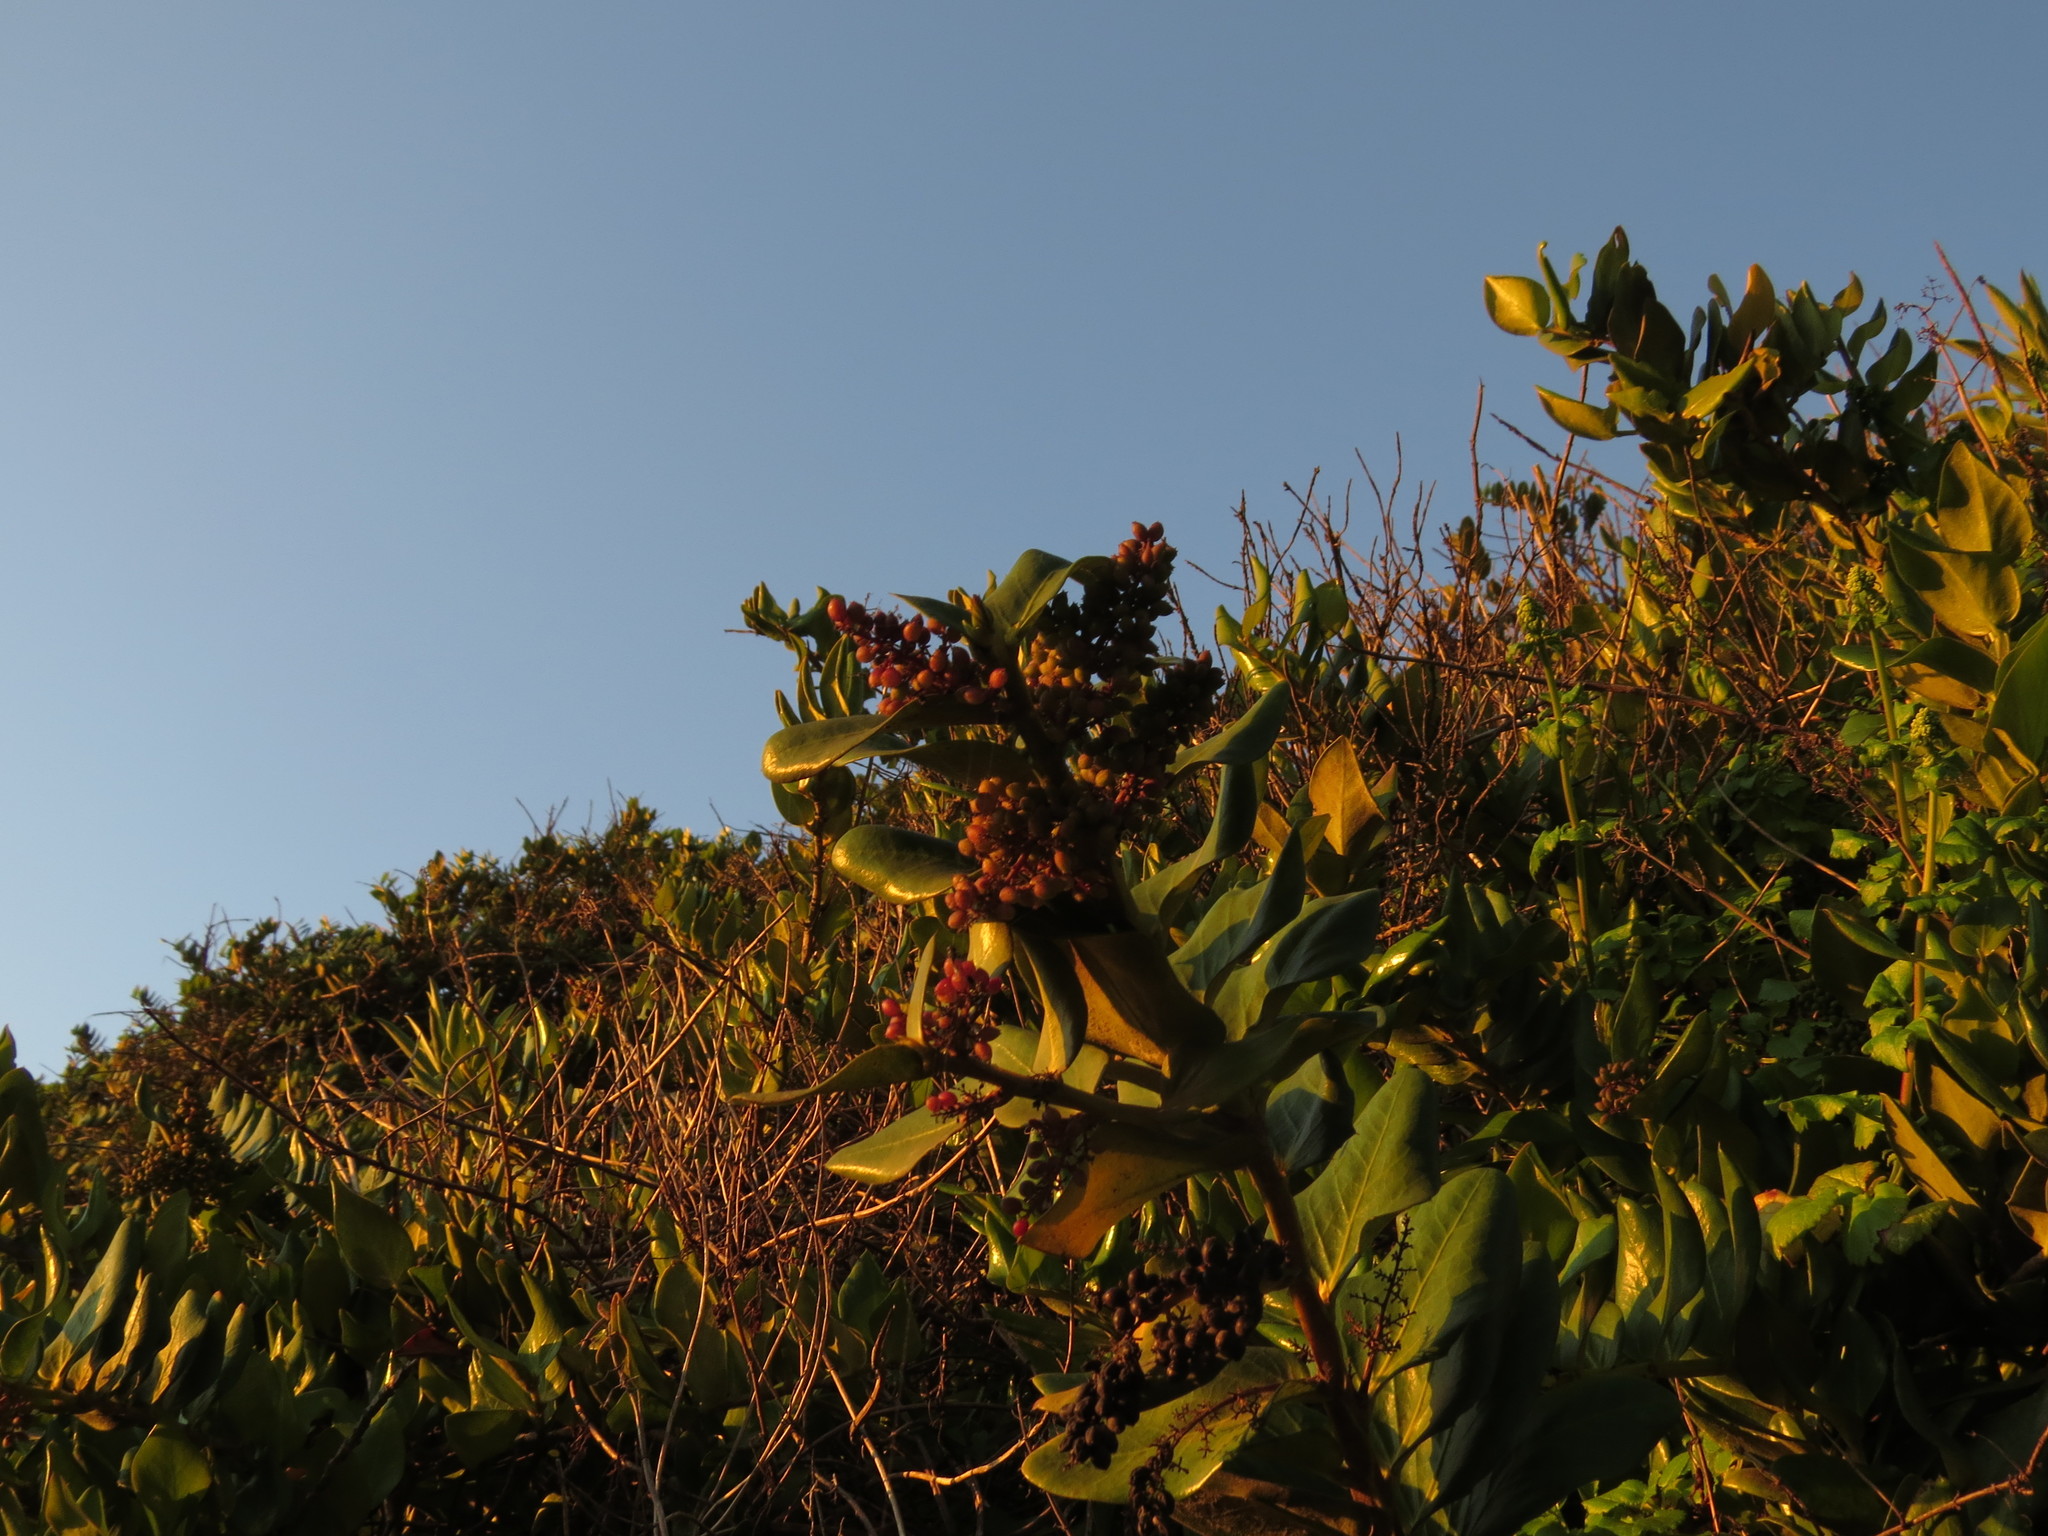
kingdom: Plantae
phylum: Tracheophyta
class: Magnoliopsida
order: Apiales
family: Griseliniaceae
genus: Griselinia
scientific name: Griselinia scandens
